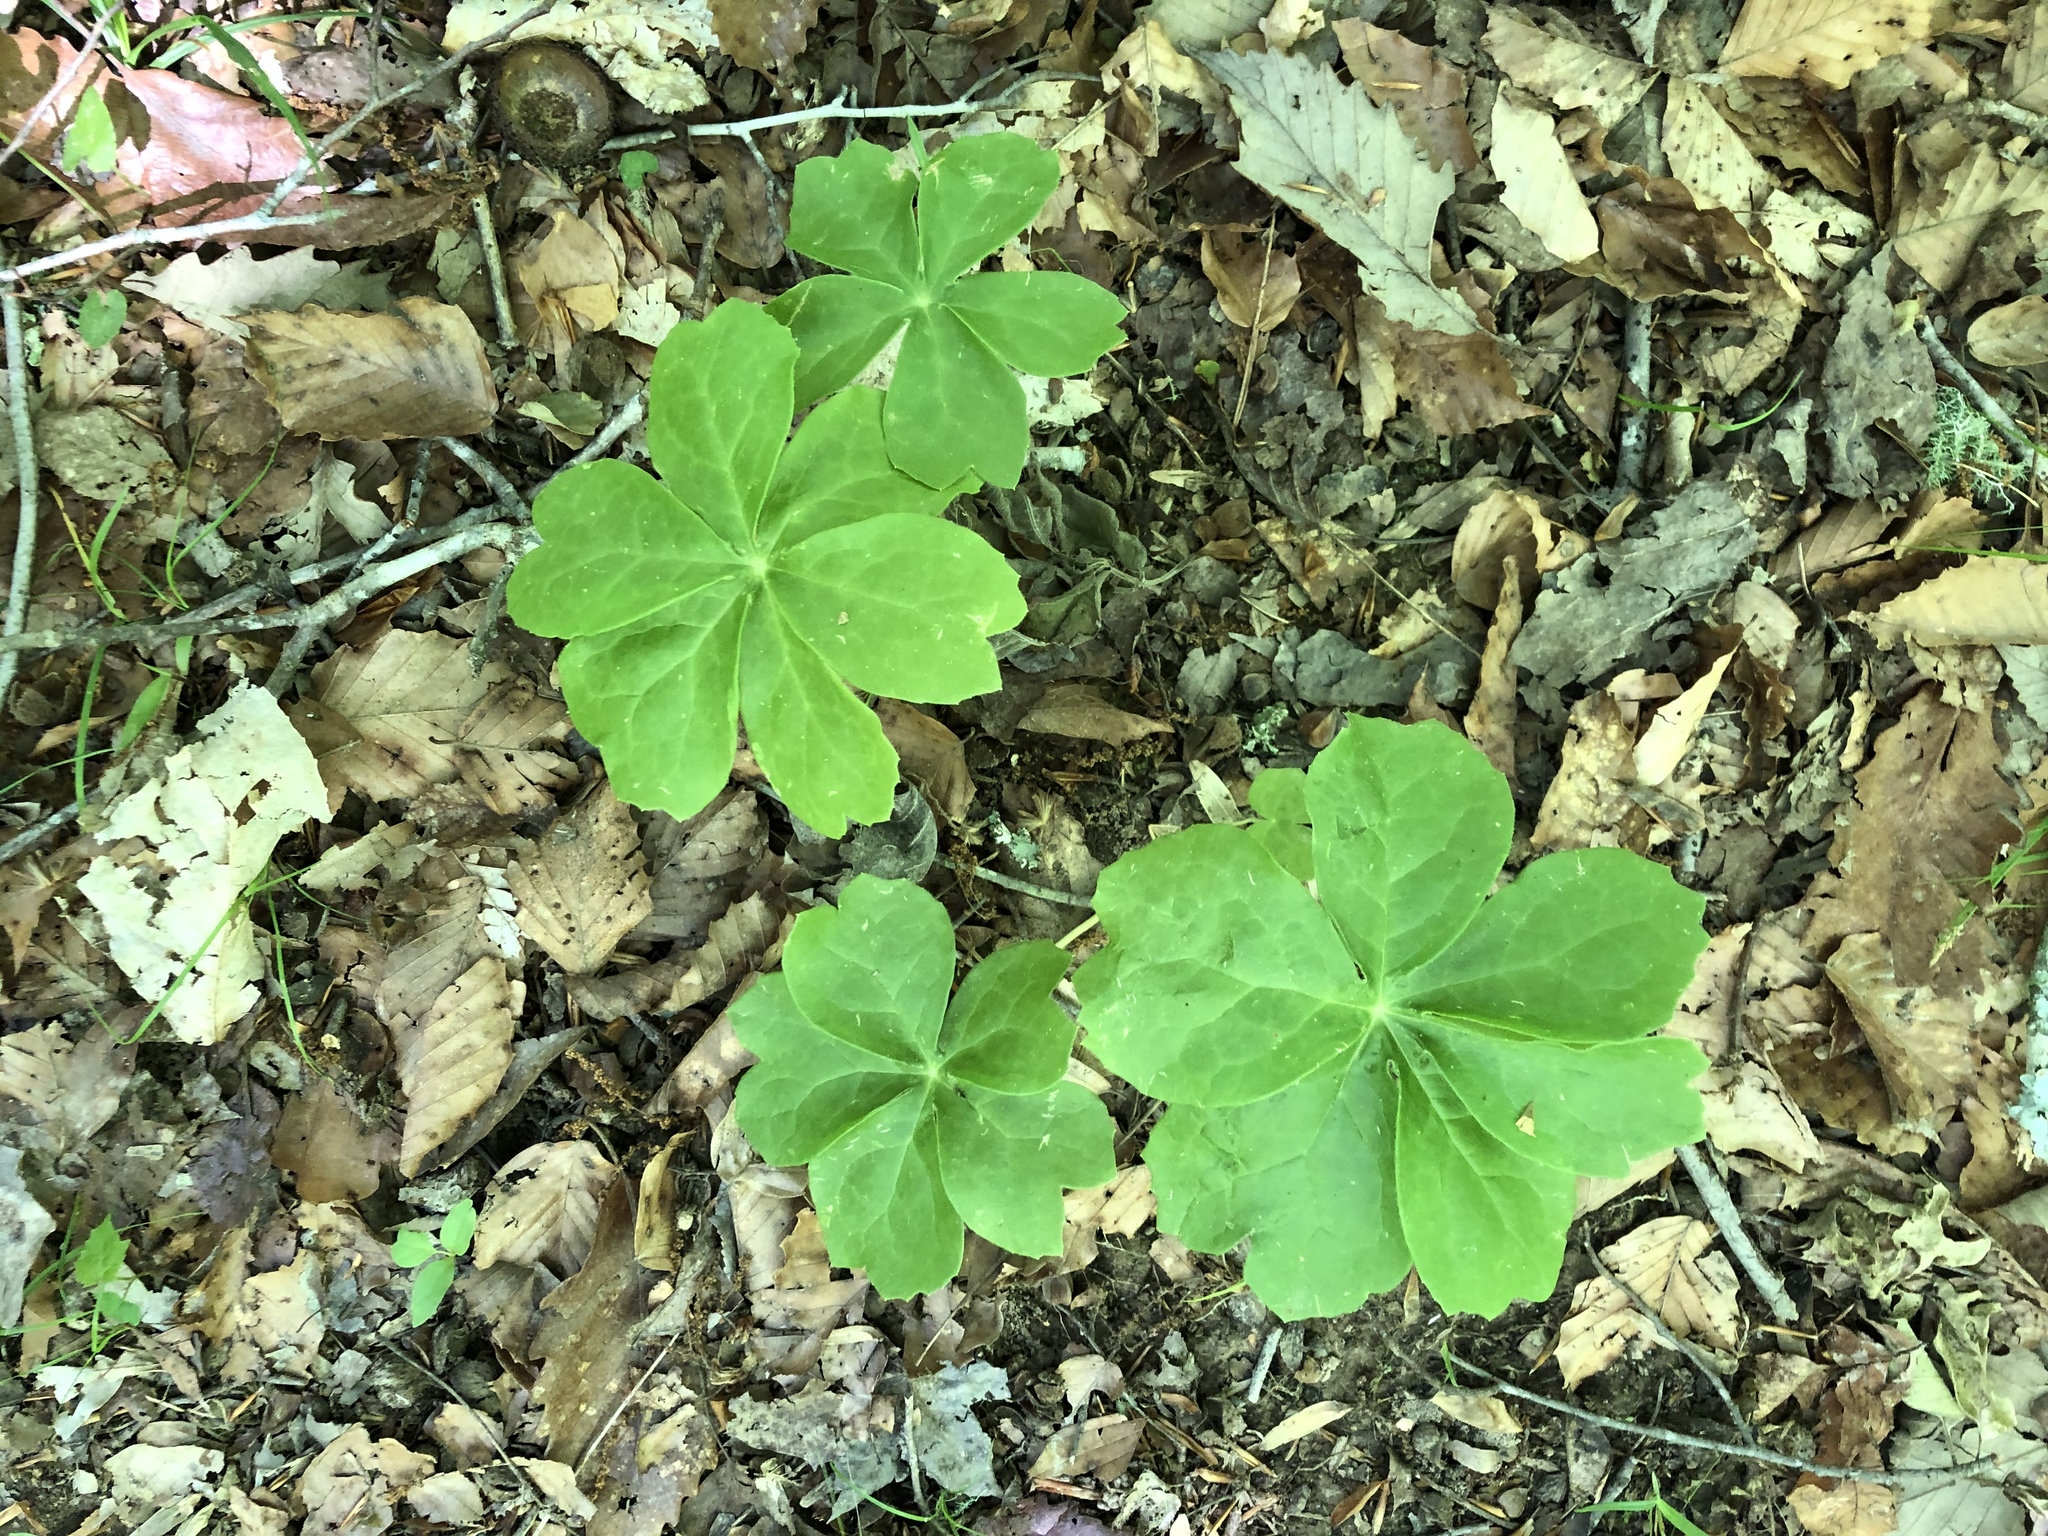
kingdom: Plantae
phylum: Tracheophyta
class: Magnoliopsida
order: Ranunculales
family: Berberidaceae
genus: Podophyllum
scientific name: Podophyllum peltatum
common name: Wild mandrake
